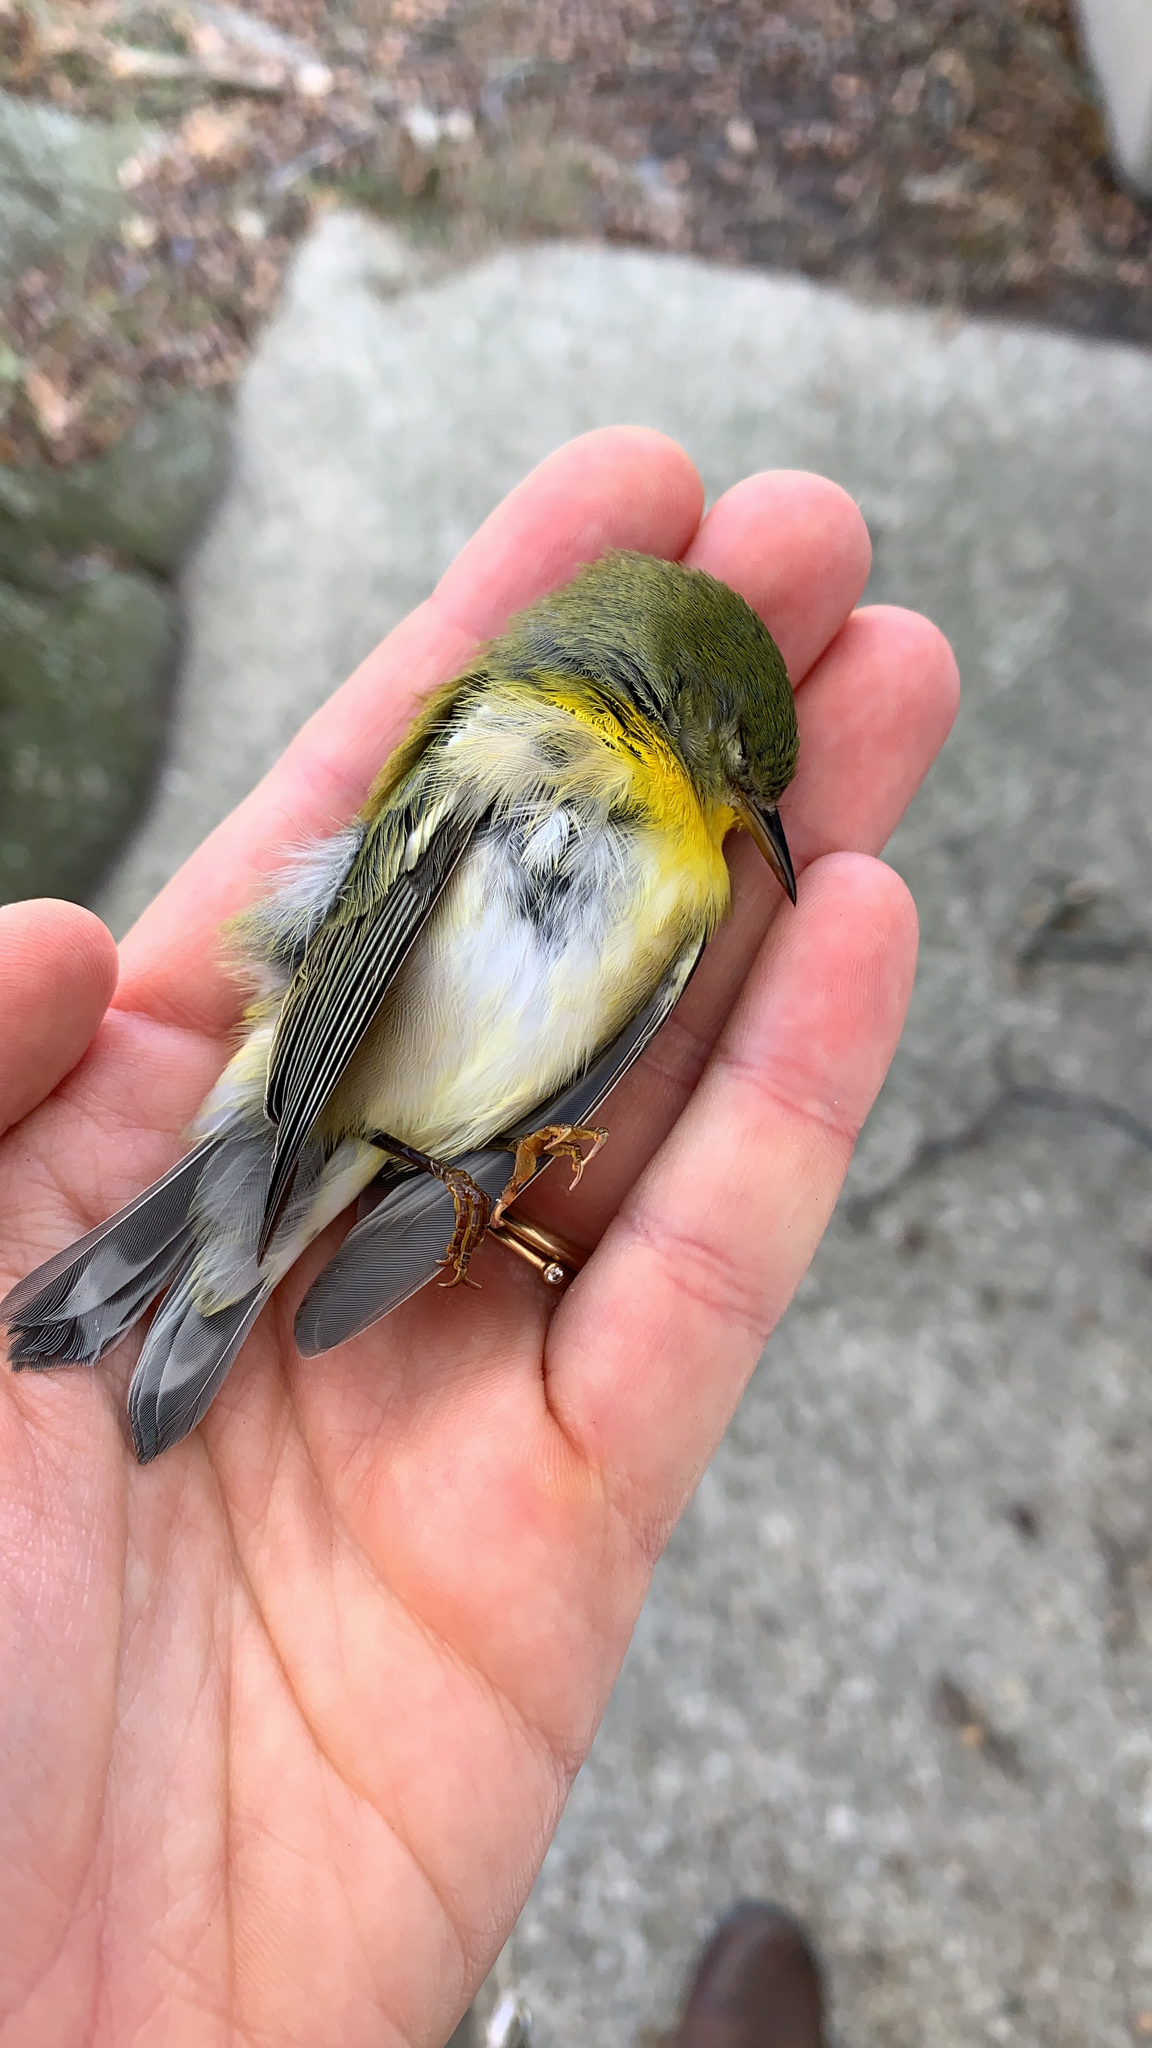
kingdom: Animalia
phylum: Chordata
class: Aves
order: Passeriformes
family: Parulidae
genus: Setophaga
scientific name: Setophaga americana
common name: Northern parula
